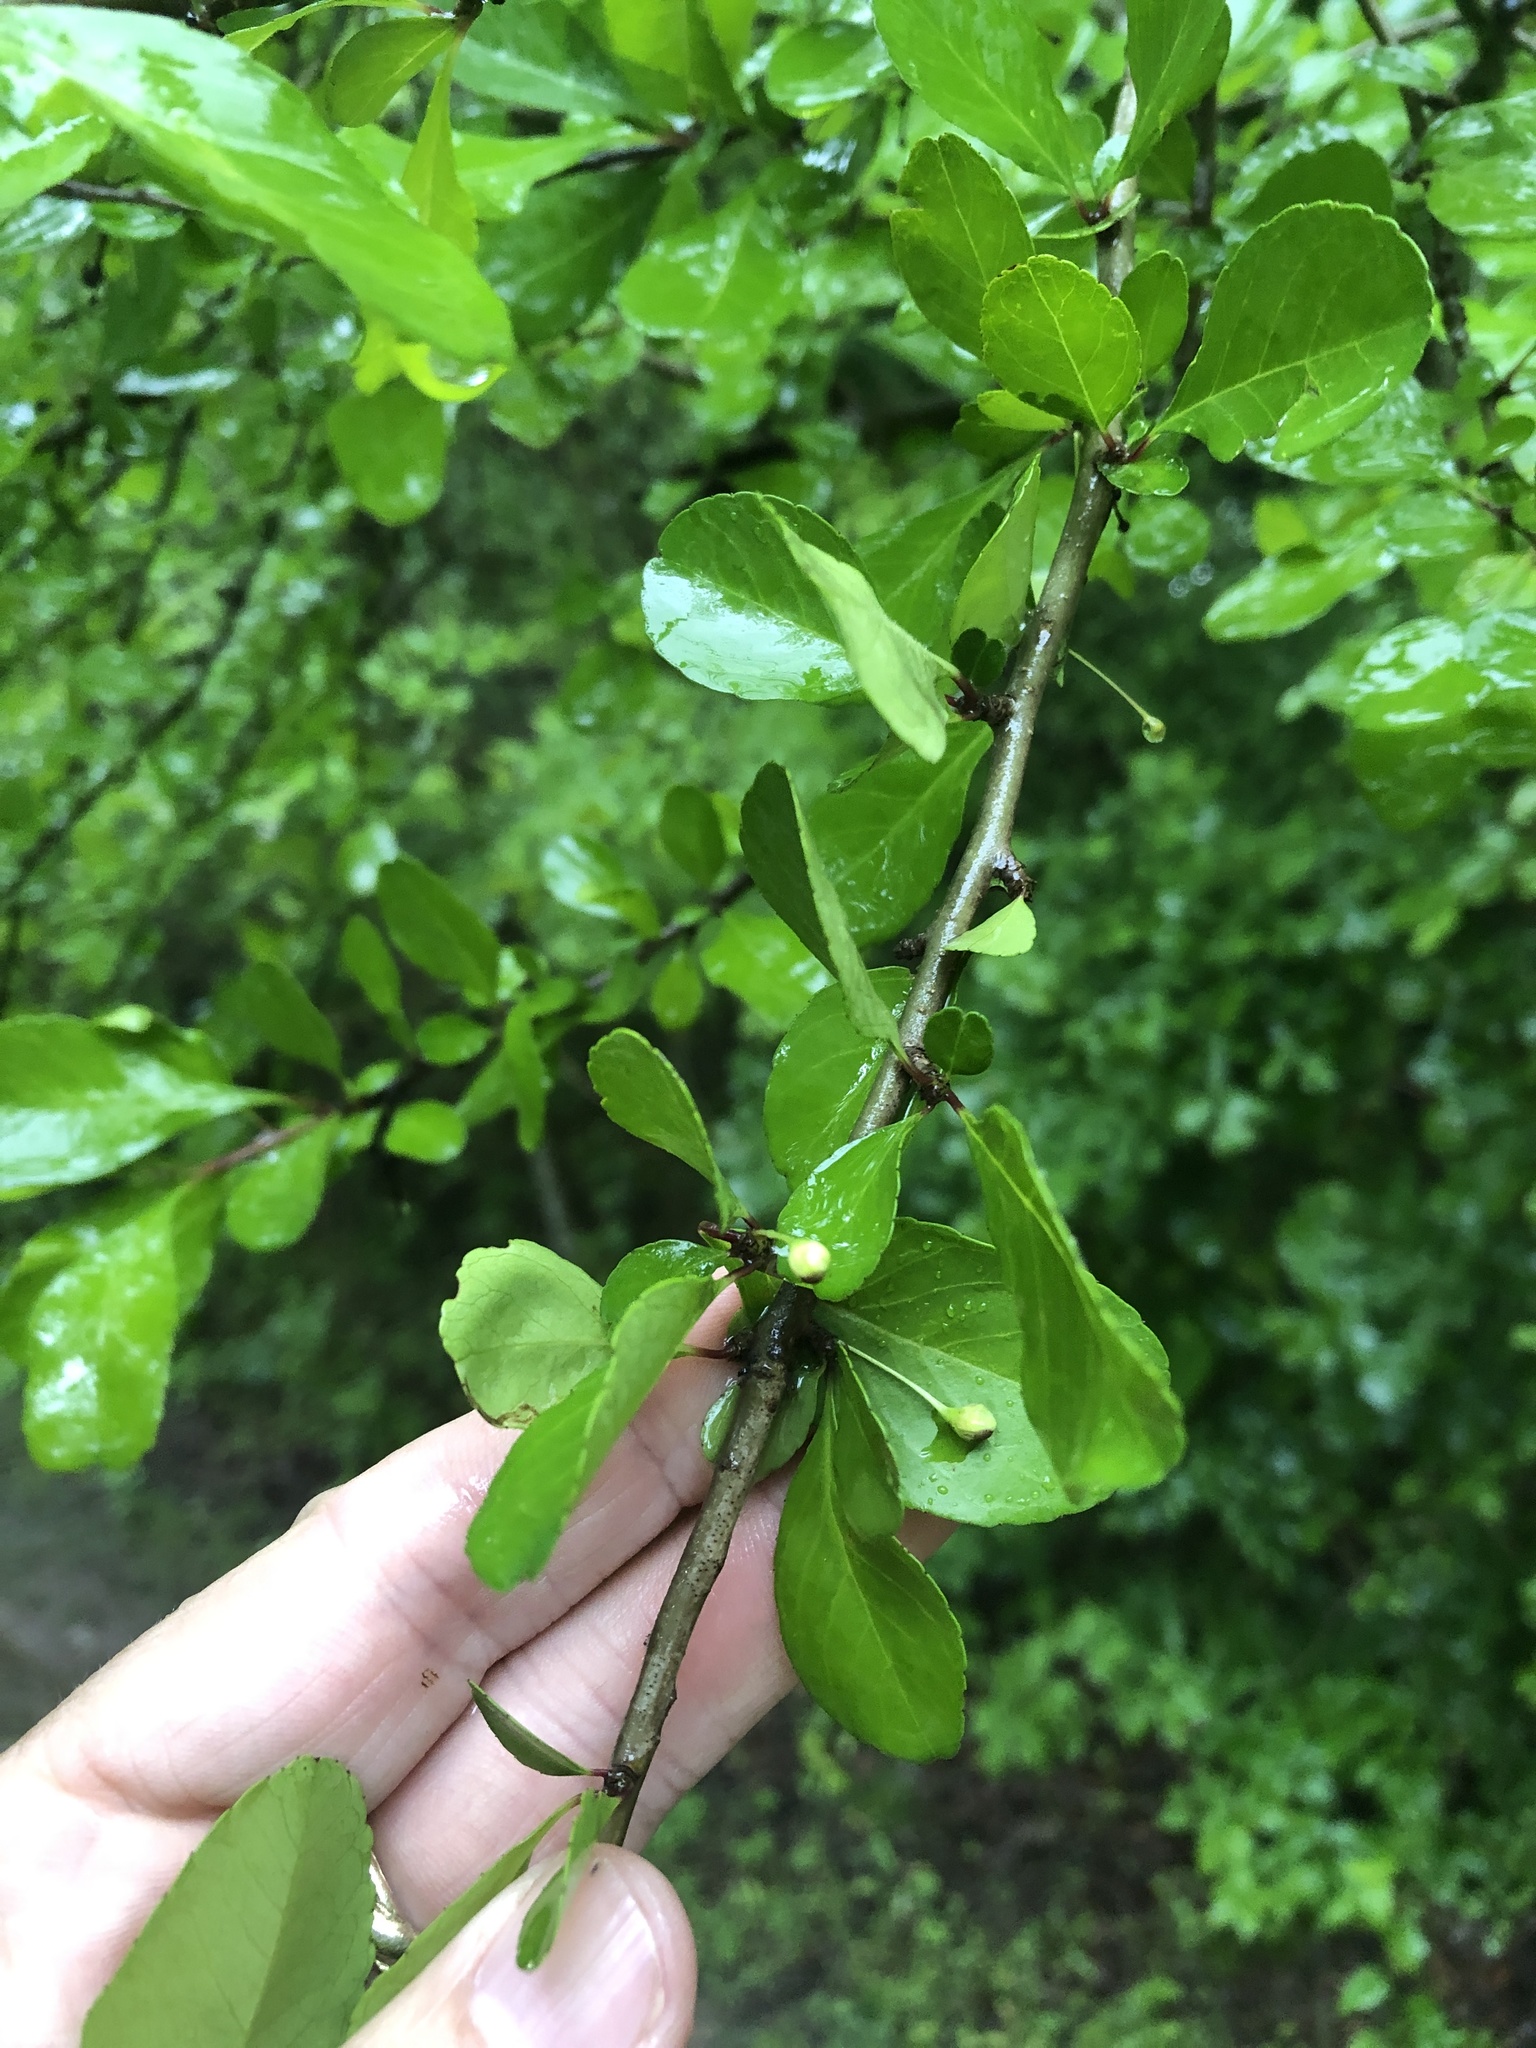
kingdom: Plantae
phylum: Tracheophyta
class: Magnoliopsida
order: Aquifoliales
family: Aquifoliaceae
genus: Ilex
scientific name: Ilex decidua
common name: Possum-haw
